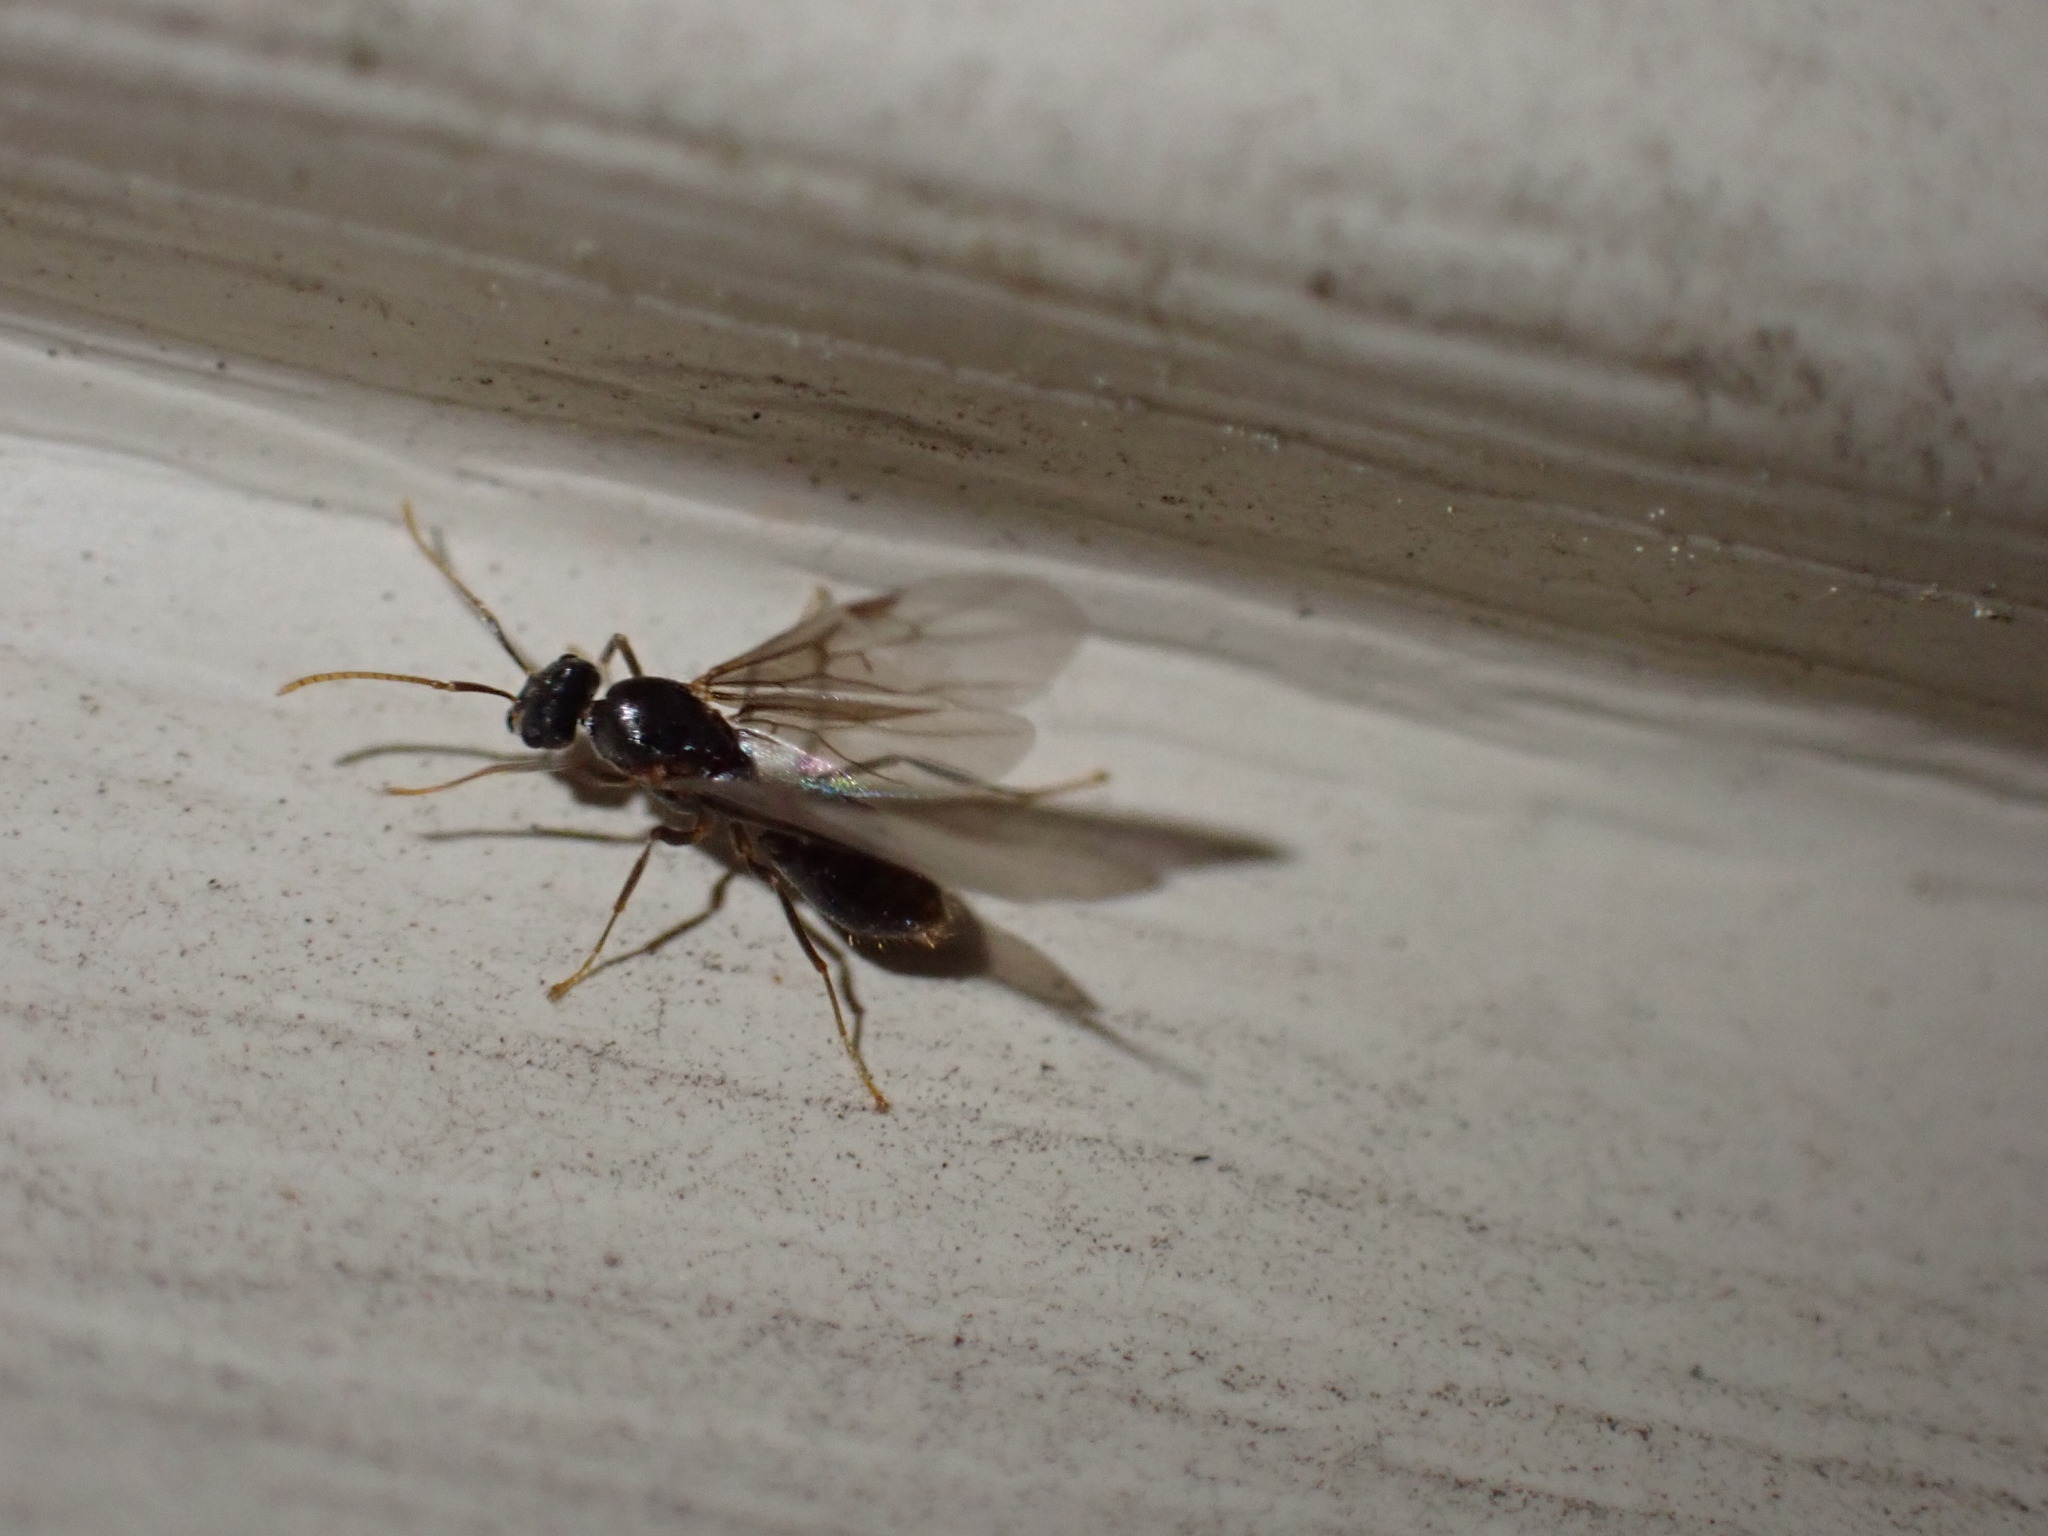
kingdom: Animalia
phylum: Arthropoda
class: Insecta
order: Hymenoptera
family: Formicidae
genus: Lasius
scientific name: Lasius
